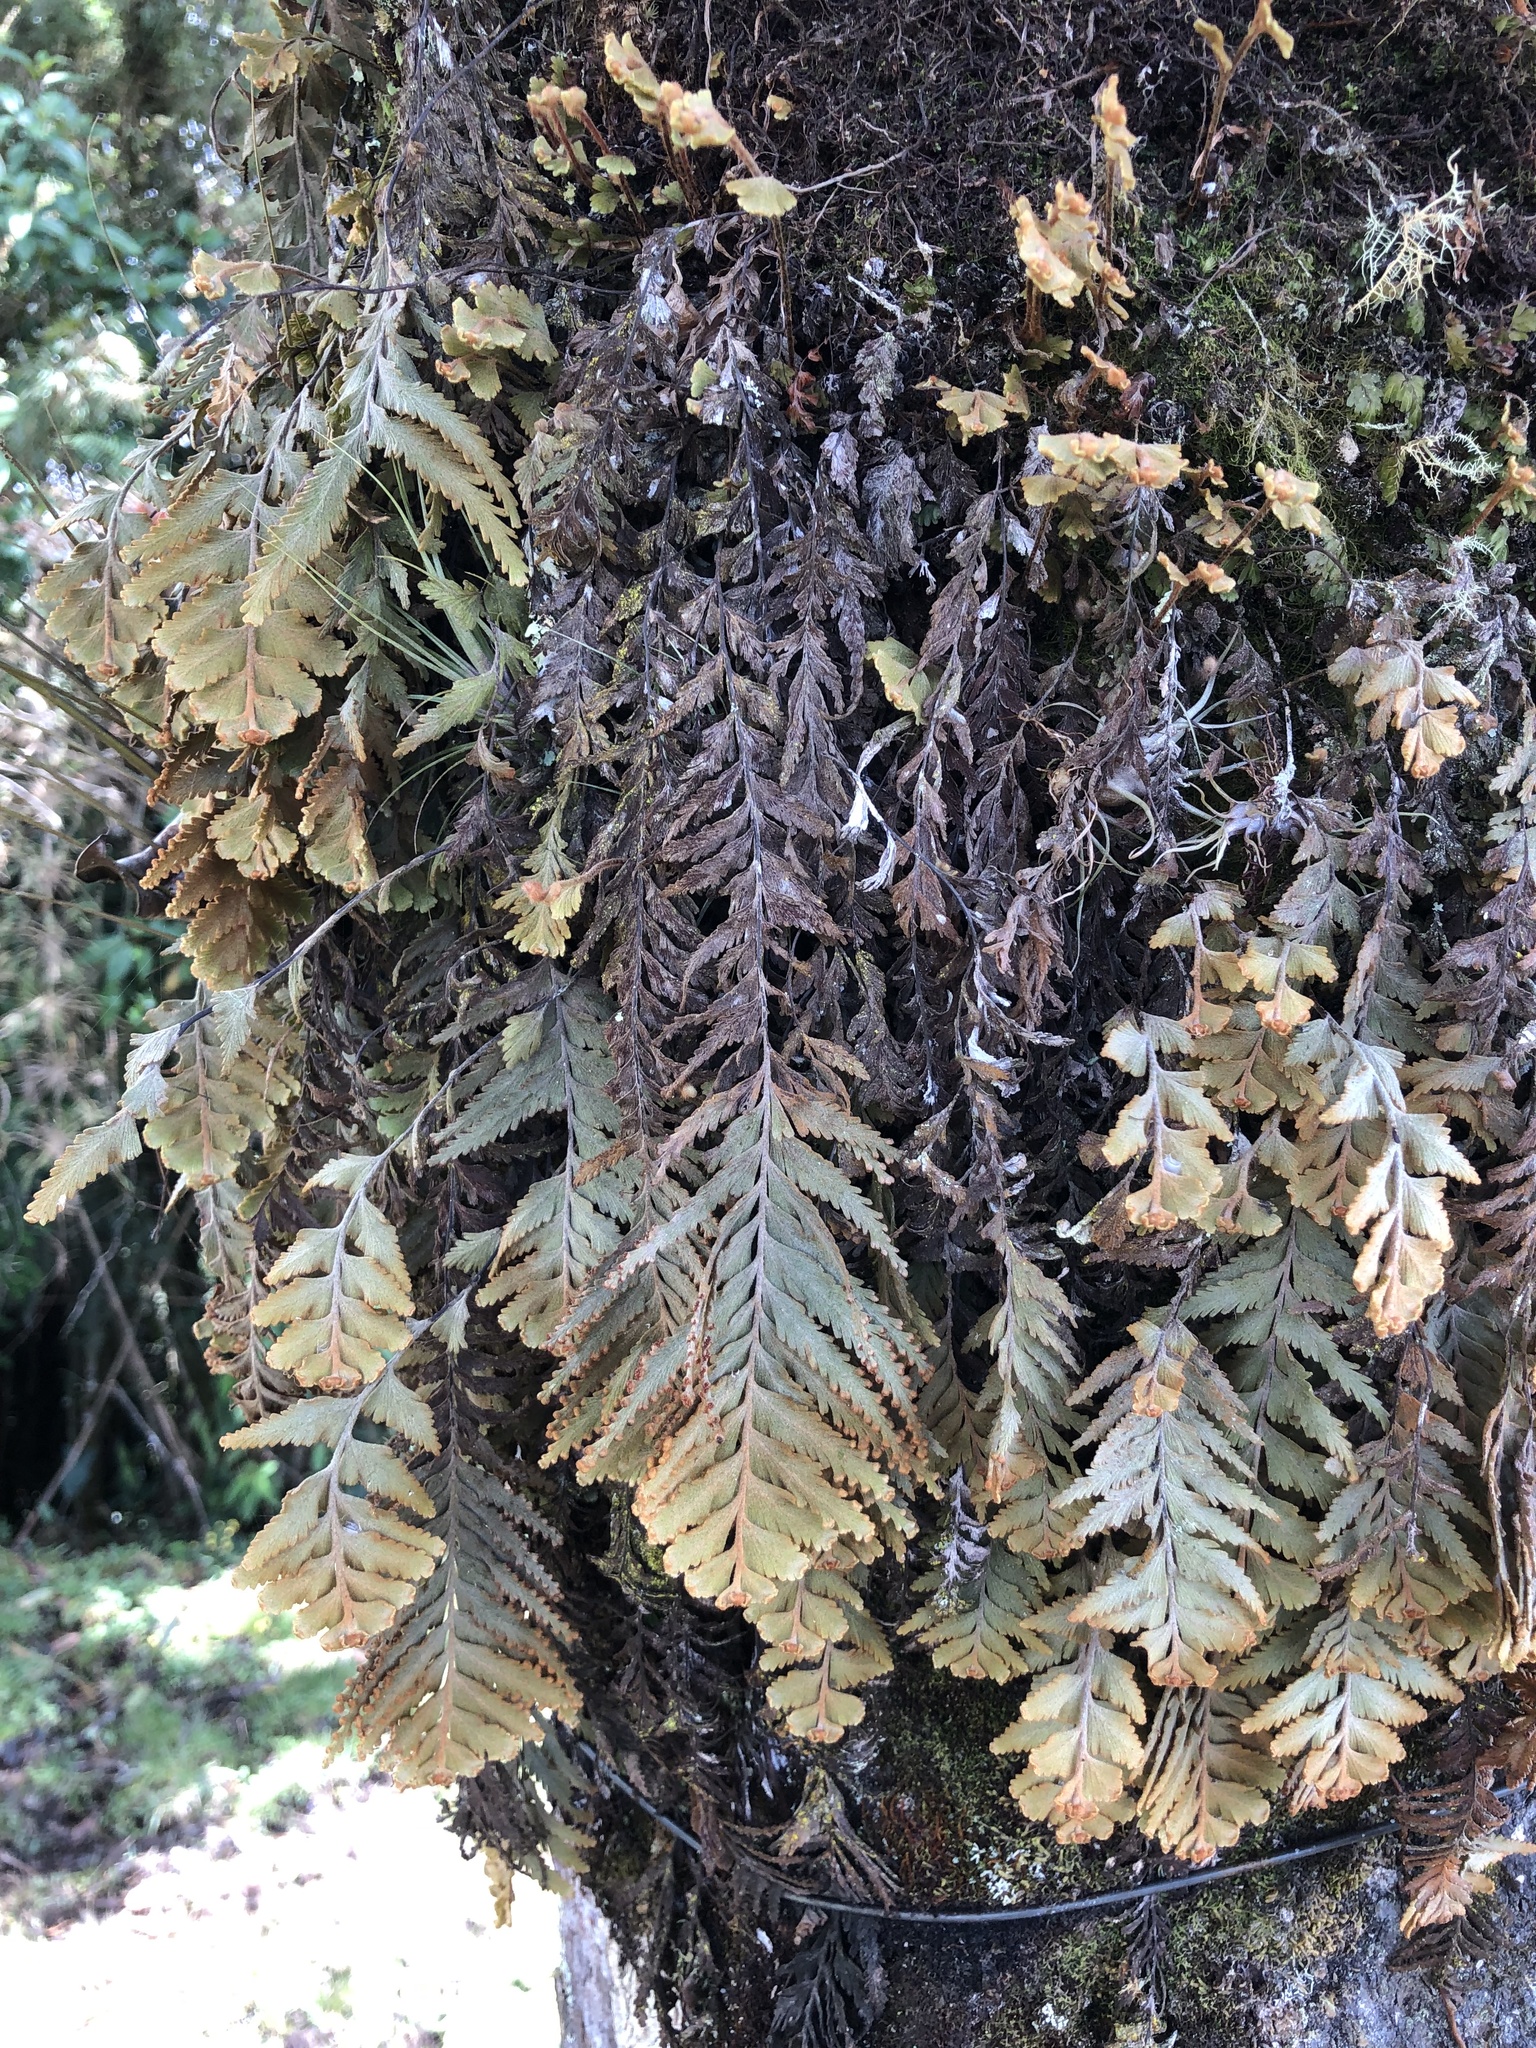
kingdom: Plantae
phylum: Tracheophyta
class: Polypodiopsida
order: Hymenophyllales
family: Hymenophyllaceae
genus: Hymenophyllum
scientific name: Hymenophyllum tomentosum
